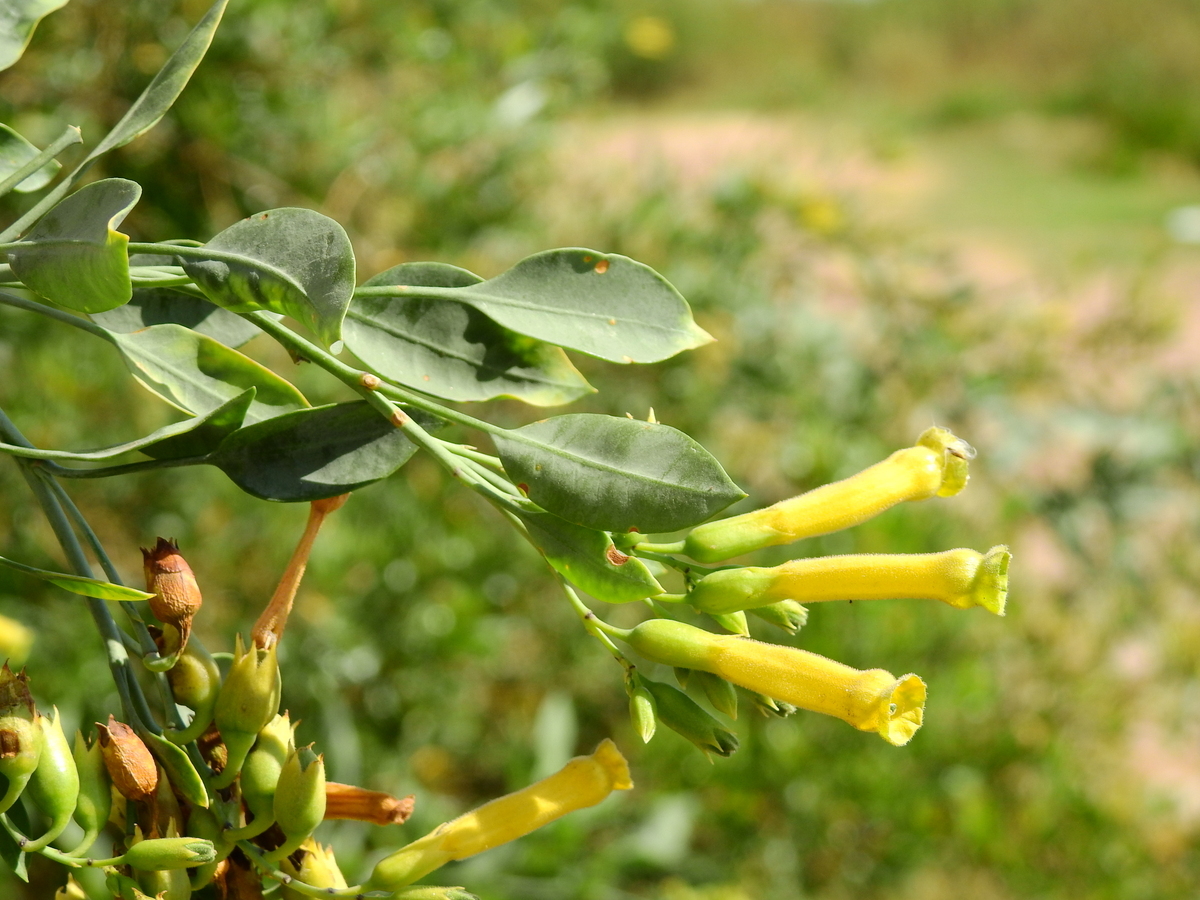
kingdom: Plantae
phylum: Tracheophyta
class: Magnoliopsida
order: Solanales
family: Solanaceae
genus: Nicotiana
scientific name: Nicotiana glauca
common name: Tree tobacco
